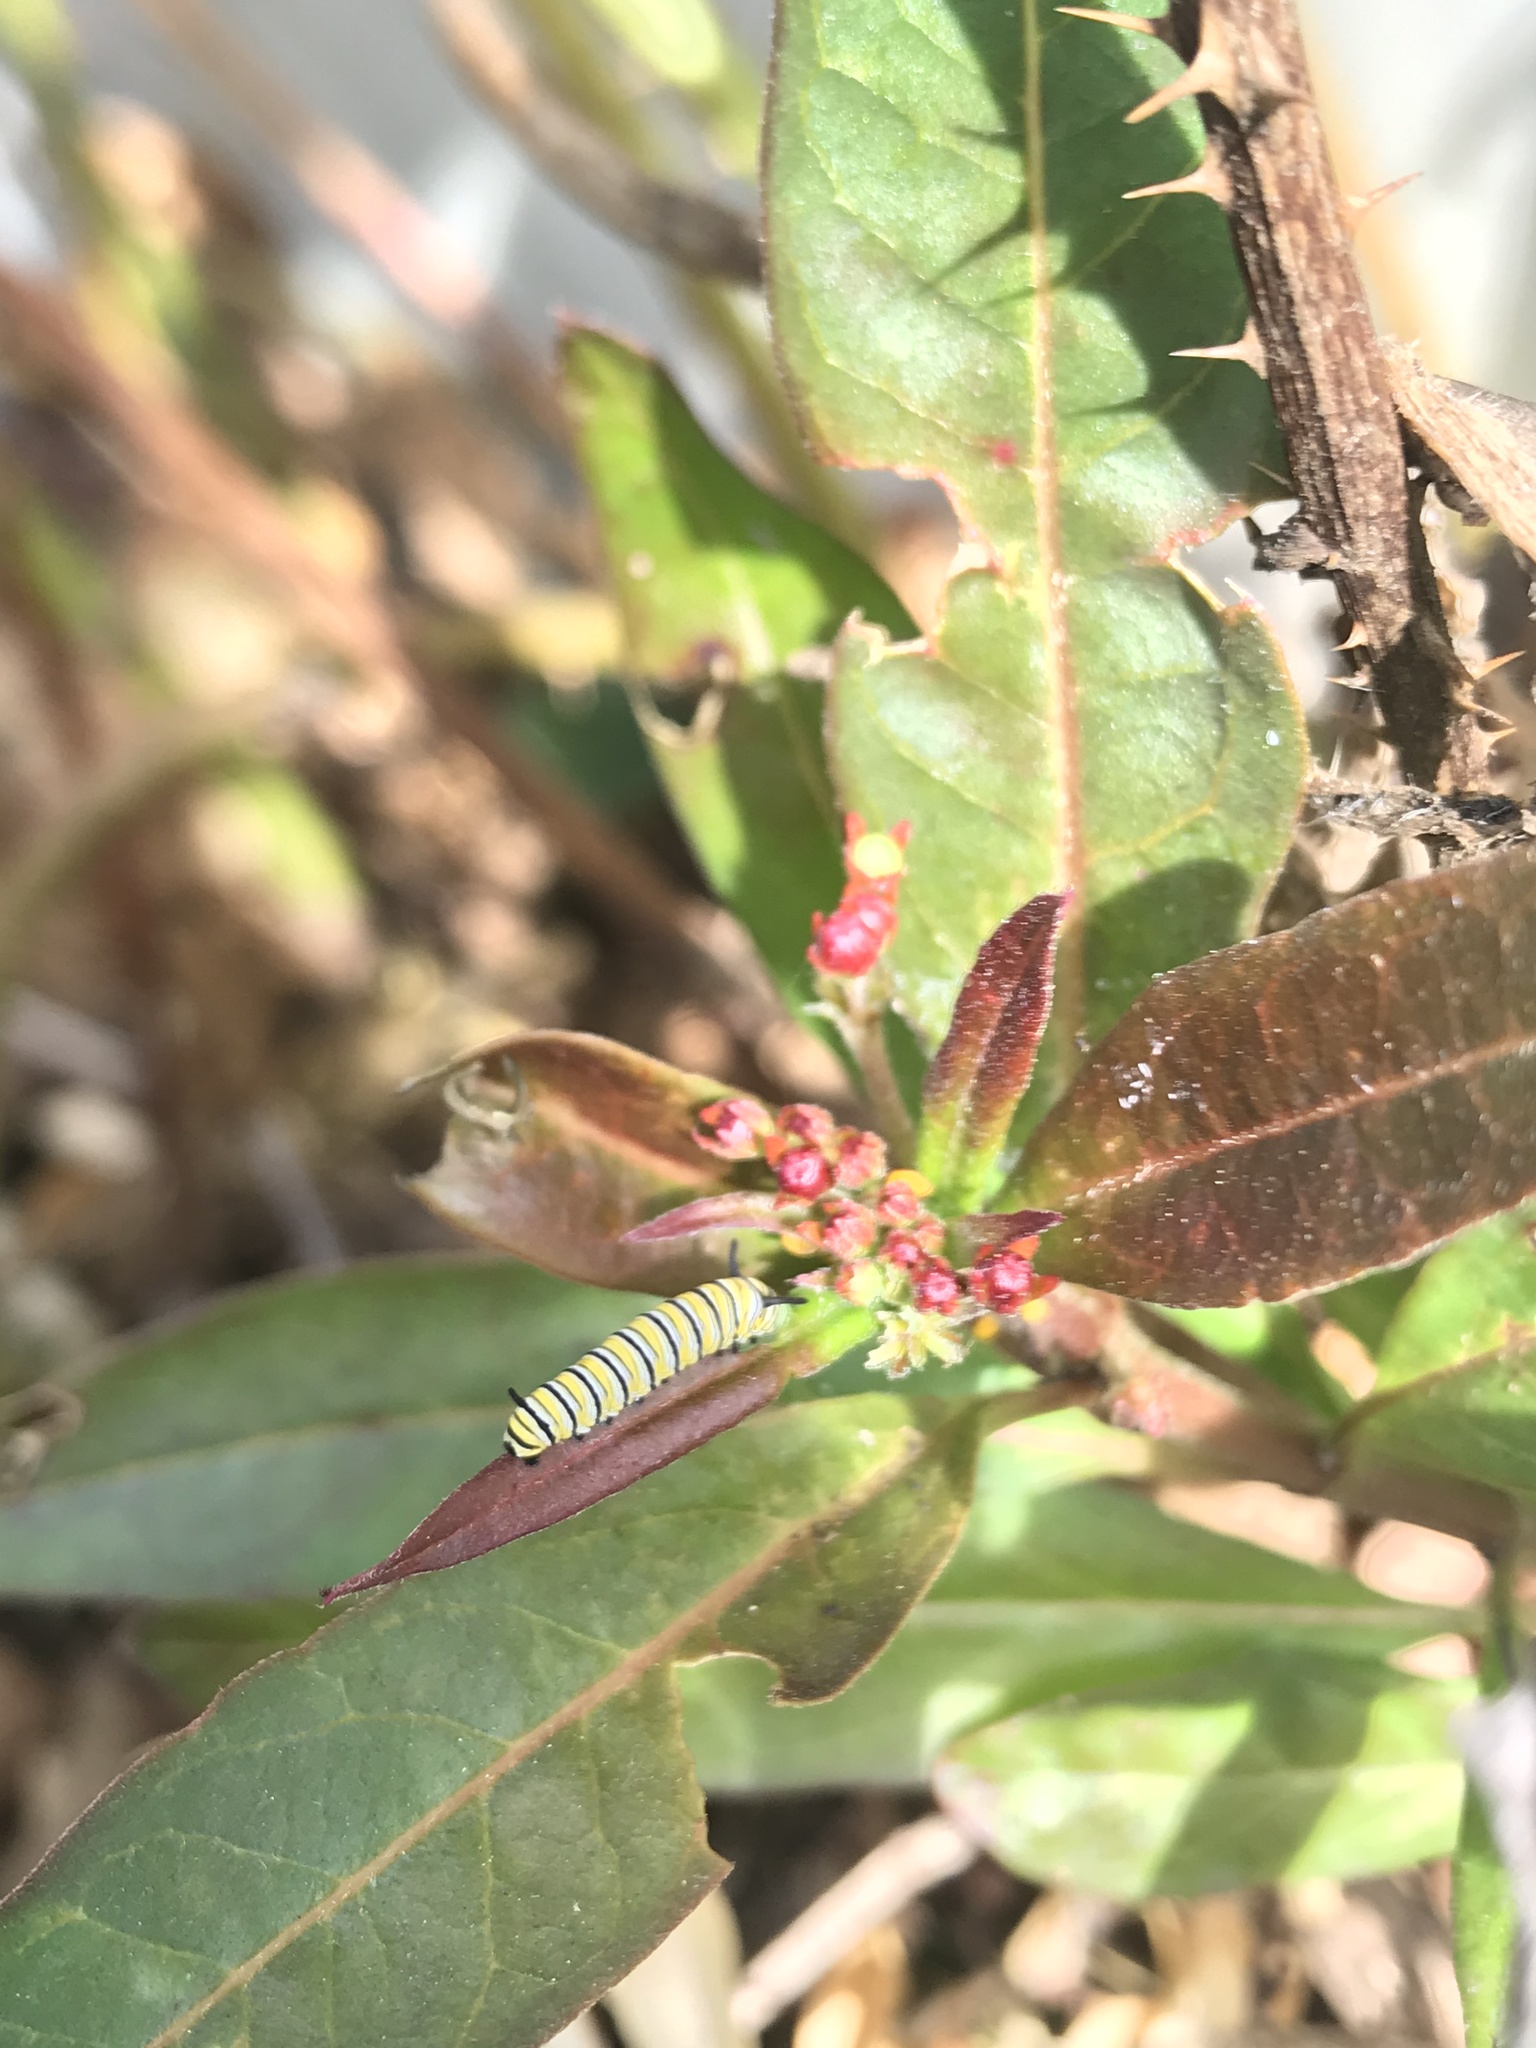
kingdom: Animalia
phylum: Arthropoda
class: Insecta
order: Lepidoptera
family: Nymphalidae
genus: Danaus
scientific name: Danaus plexippus
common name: Monarch
